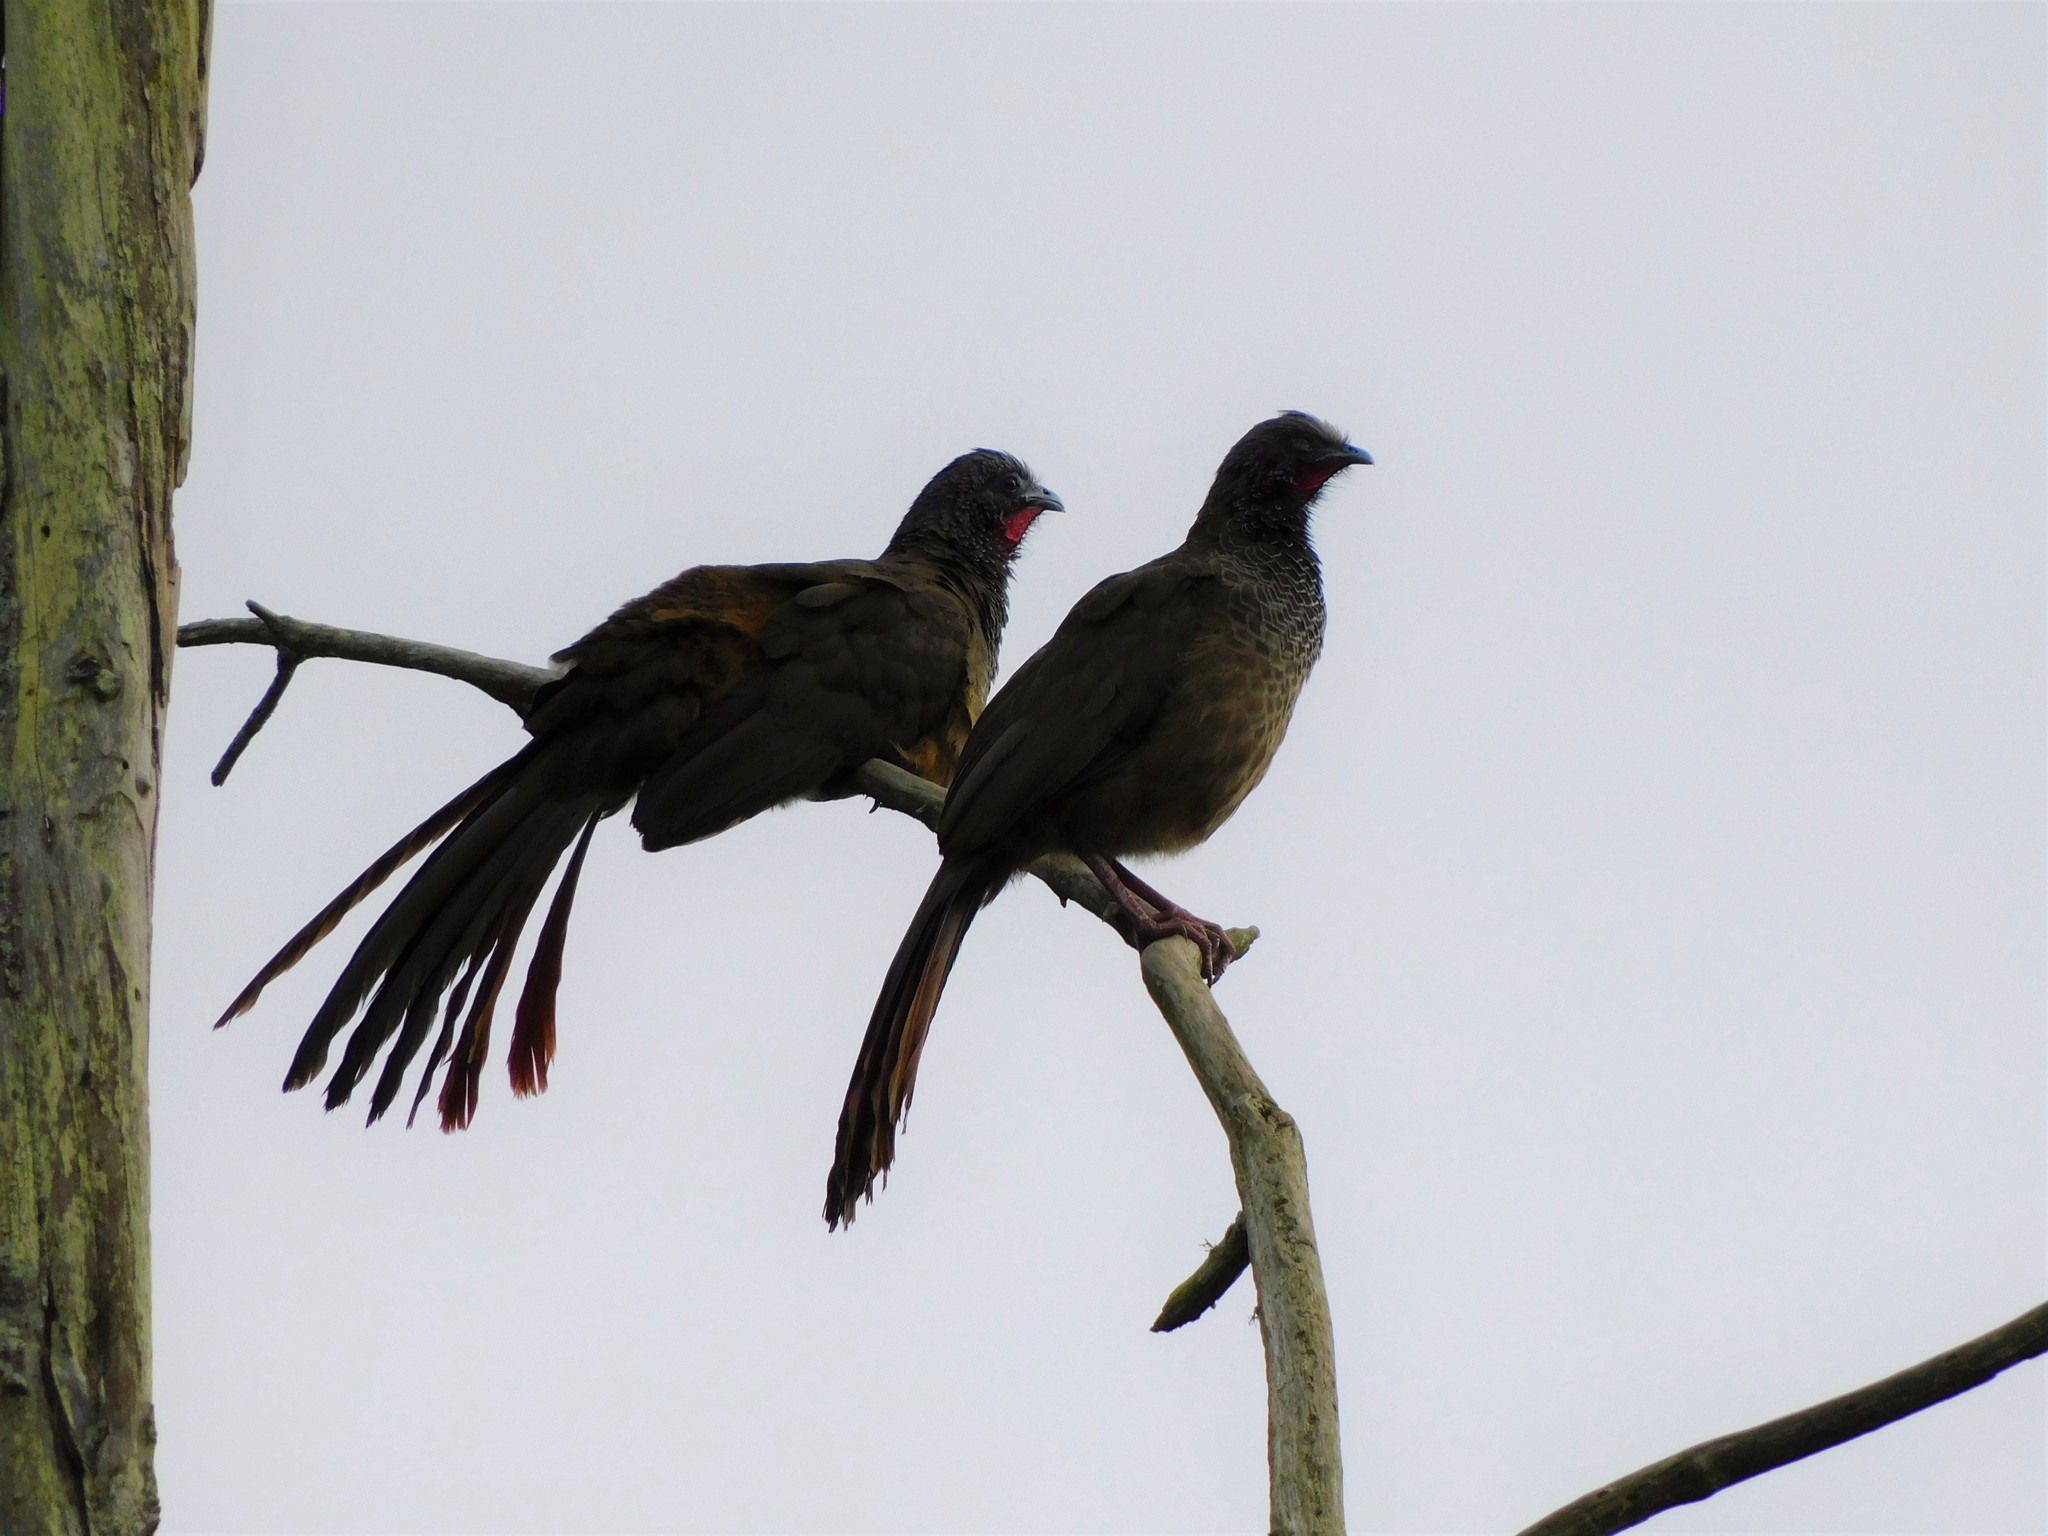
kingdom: Animalia
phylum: Chordata
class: Aves
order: Galliformes
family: Cracidae
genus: Ortalis
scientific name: Ortalis columbiana
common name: Colombian chachalaca
